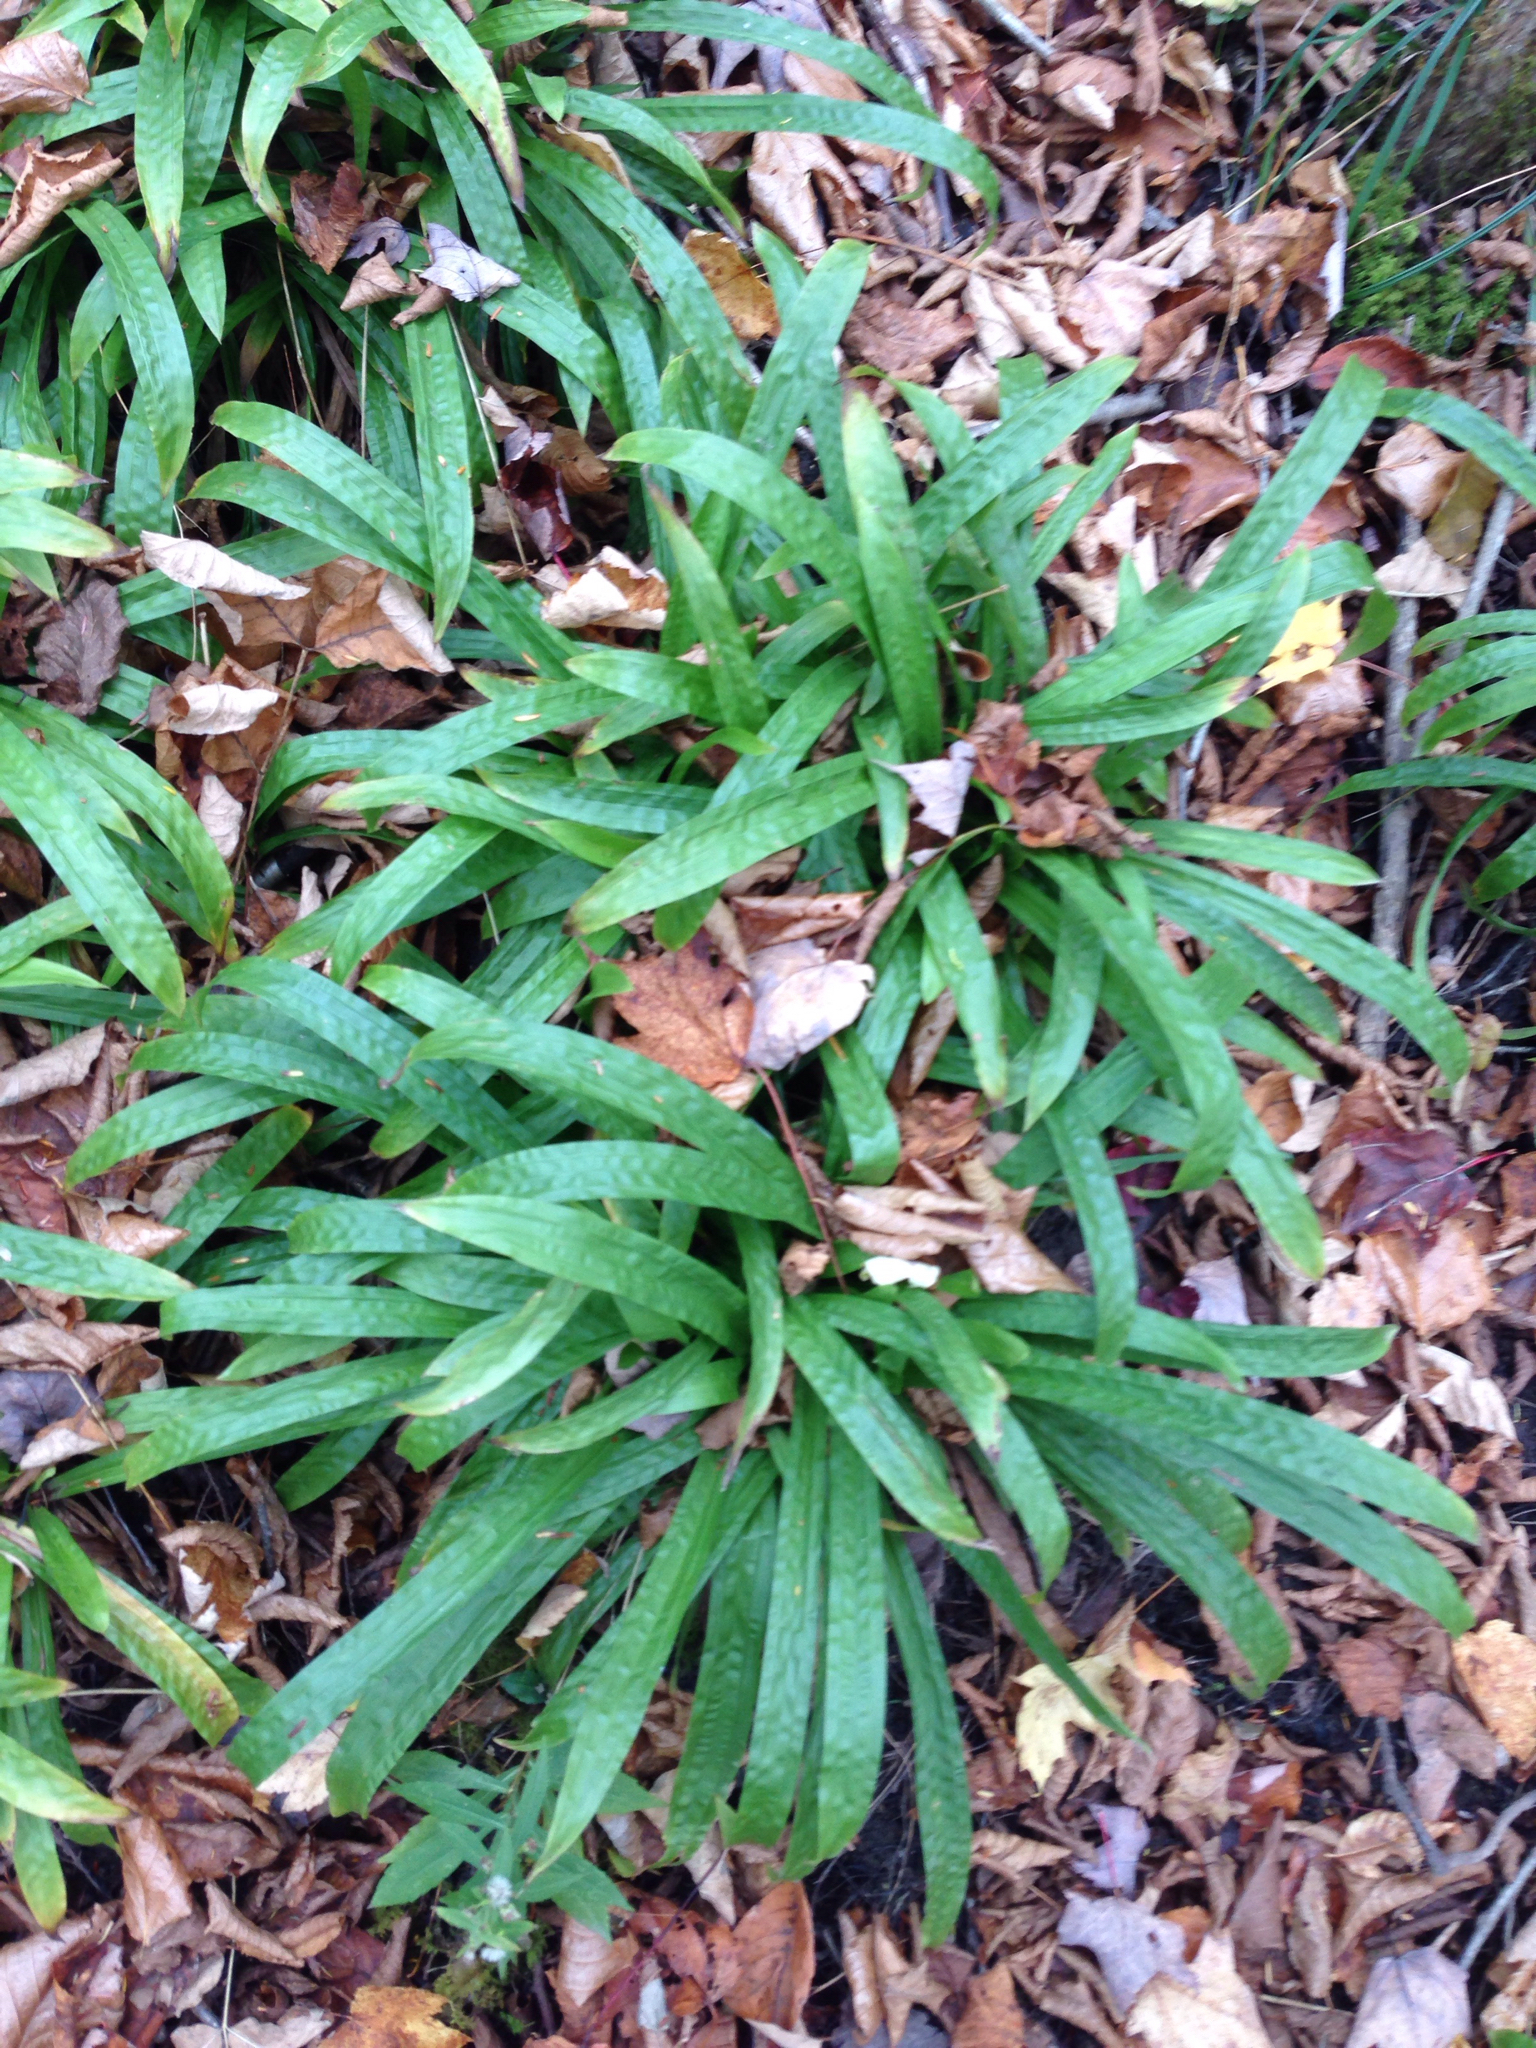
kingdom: Plantae
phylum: Tracheophyta
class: Liliopsida
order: Poales
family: Cyperaceae
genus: Carex
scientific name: Carex plantaginea
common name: Plantain-leaved sedge
